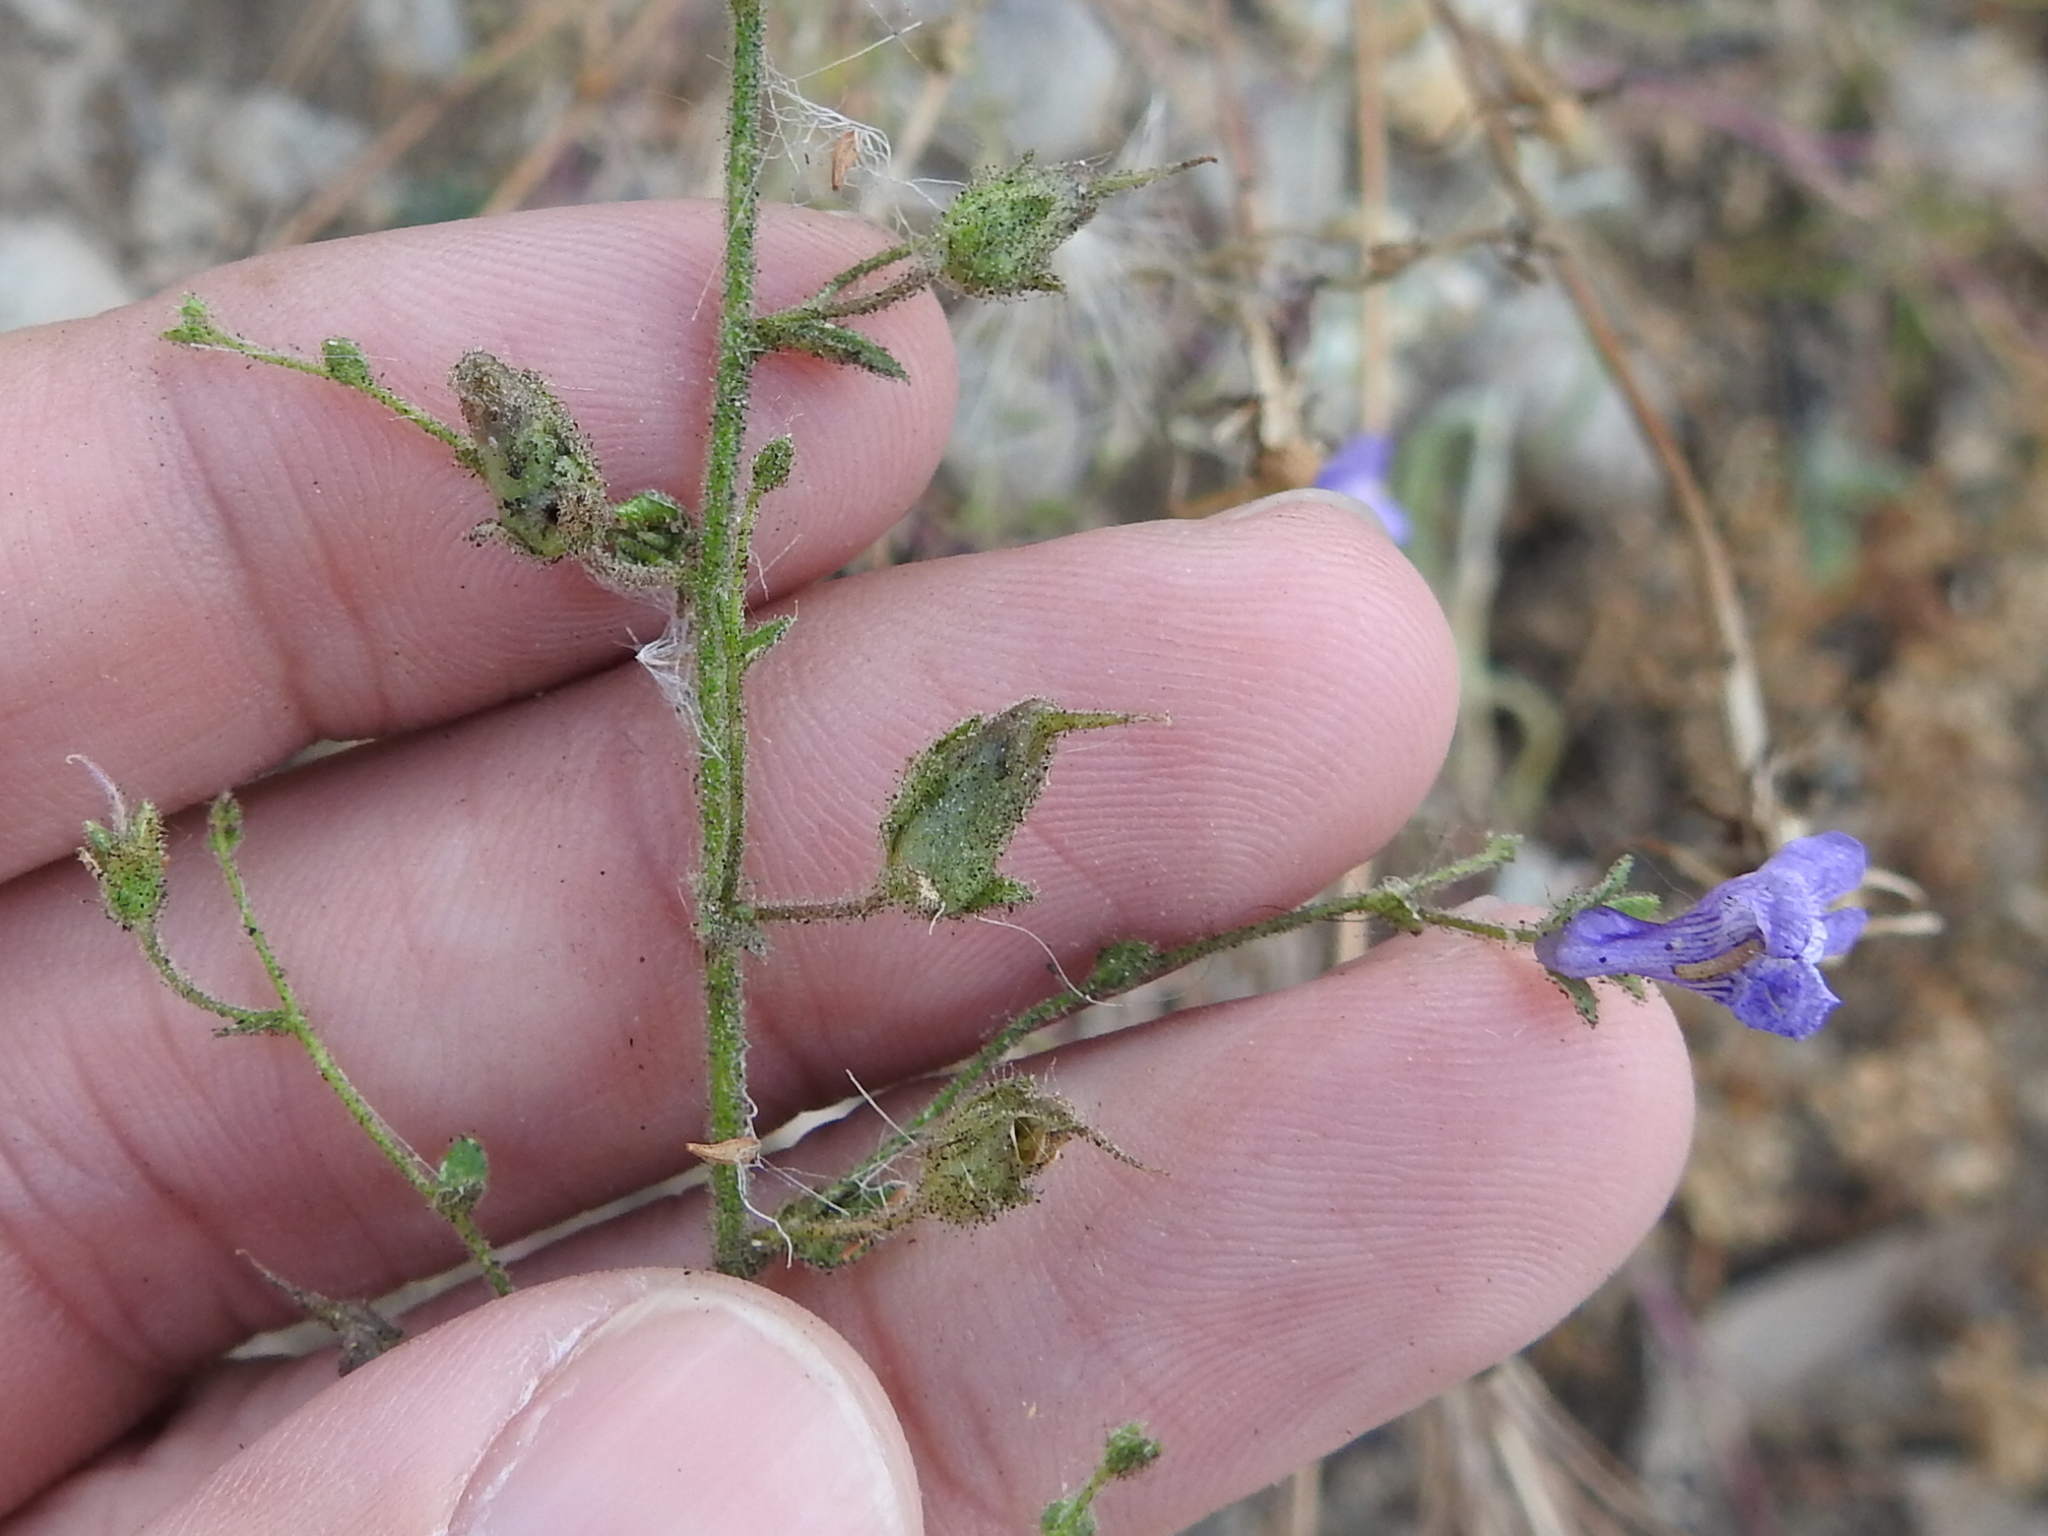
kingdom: Plantae
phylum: Tracheophyta
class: Magnoliopsida
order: Lamiales
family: Plantaginaceae
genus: Sairocarpus
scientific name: Sairocarpus nuttallianus
